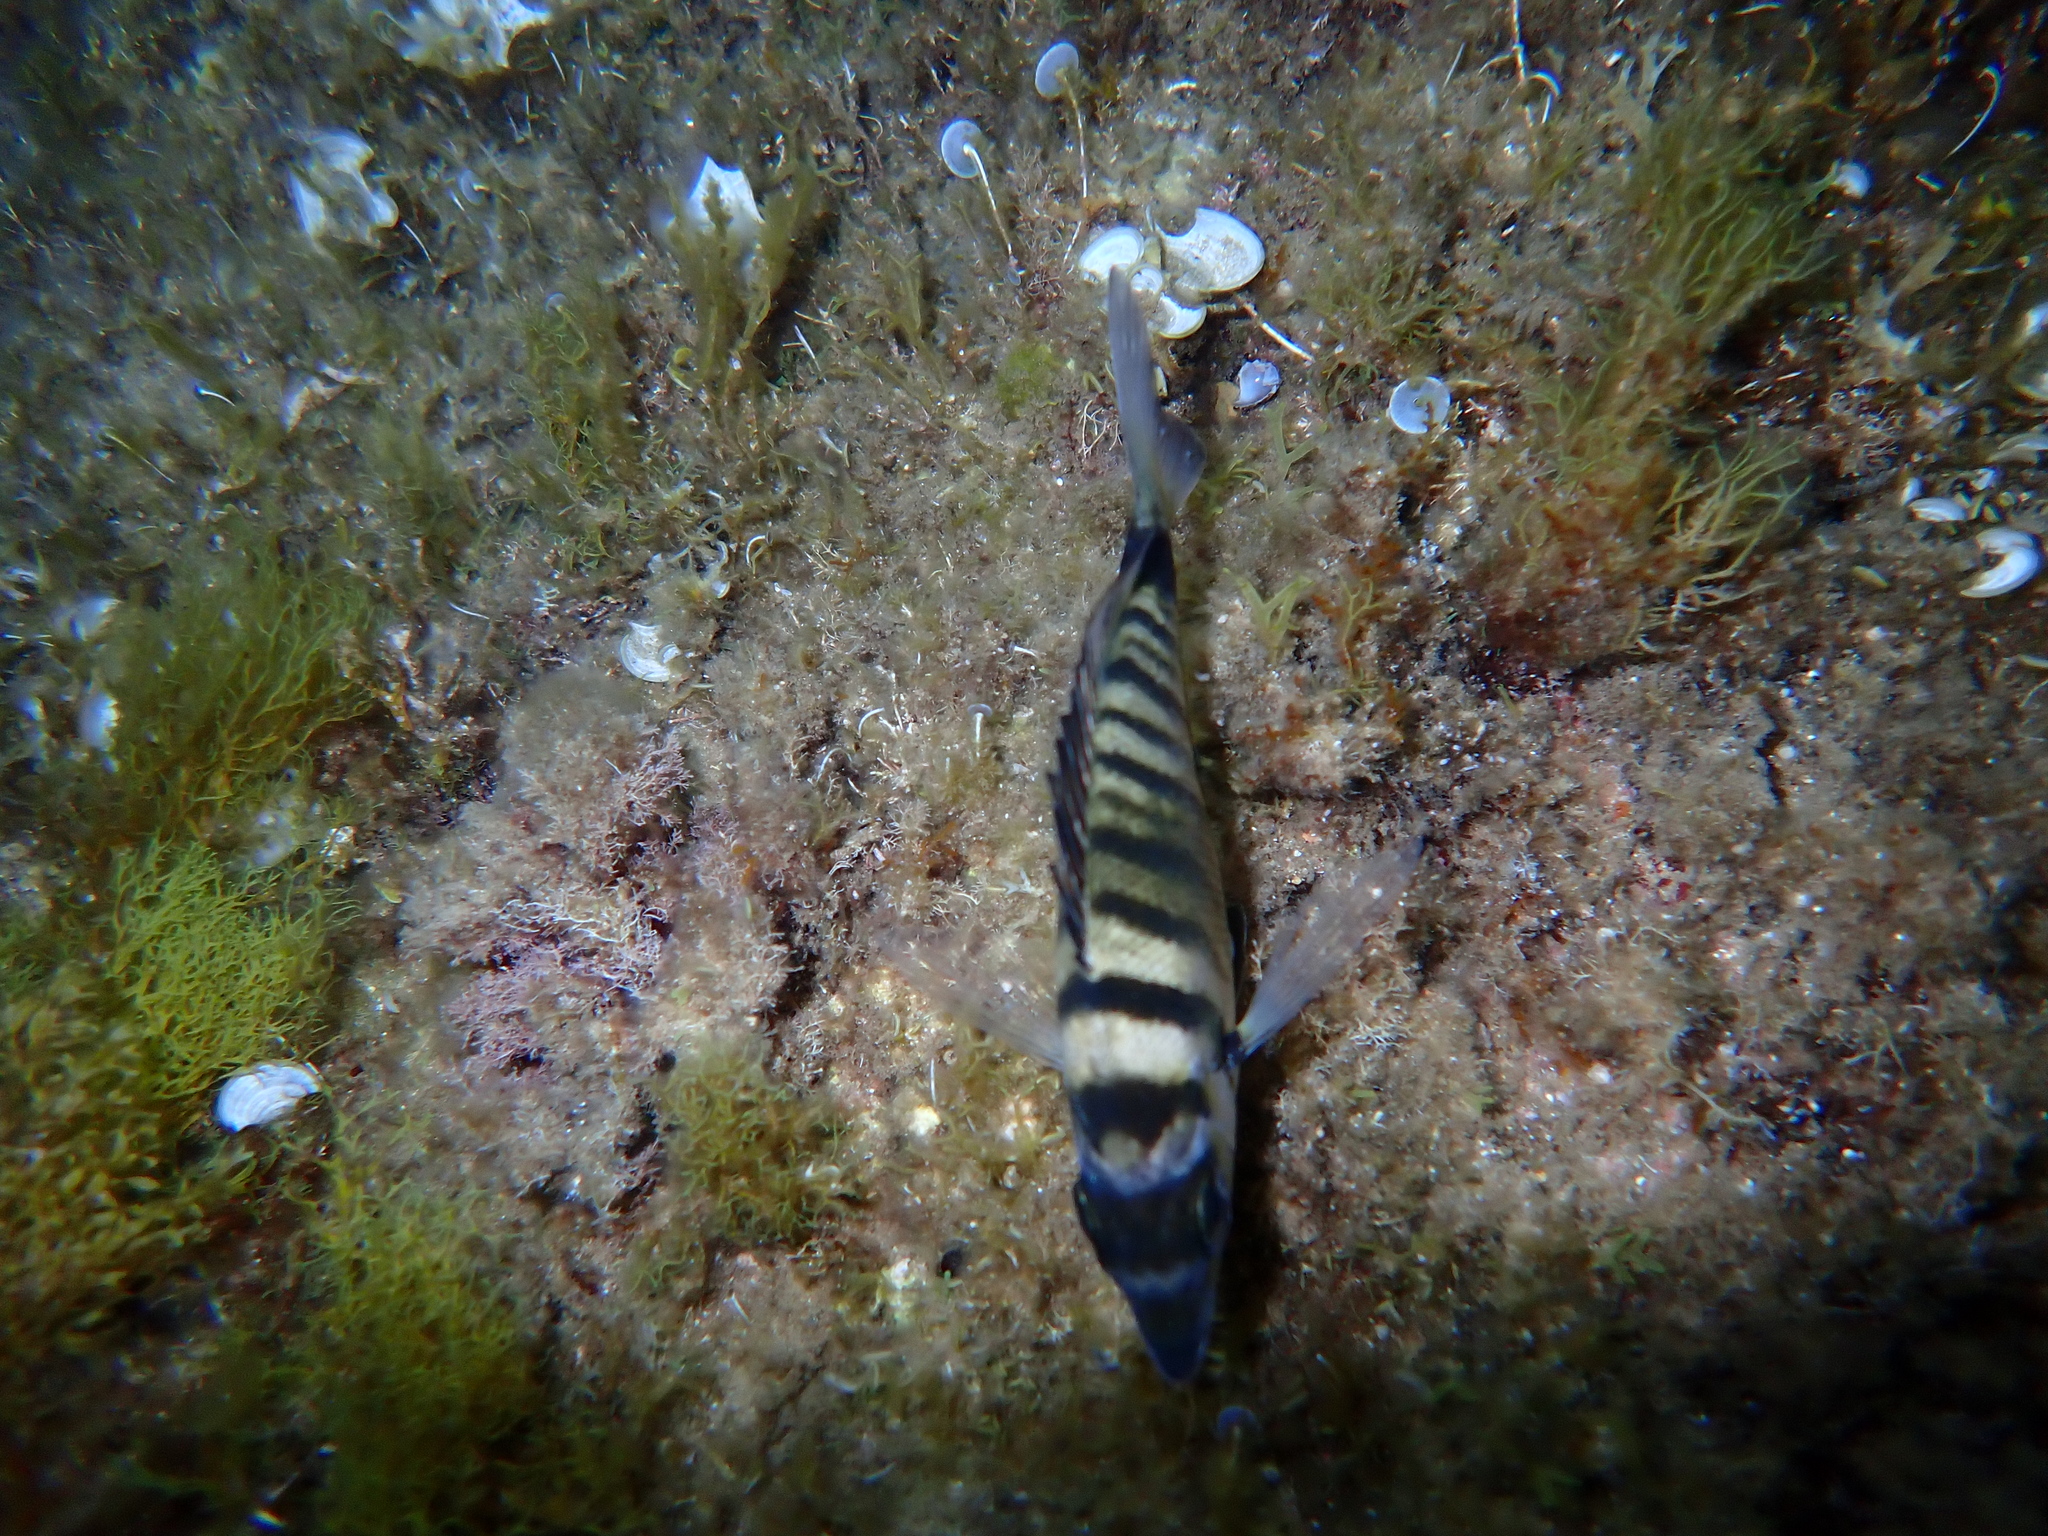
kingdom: Animalia
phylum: Chordata
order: Perciformes
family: Sparidae
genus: Diplodus
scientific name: Diplodus puntazzo
